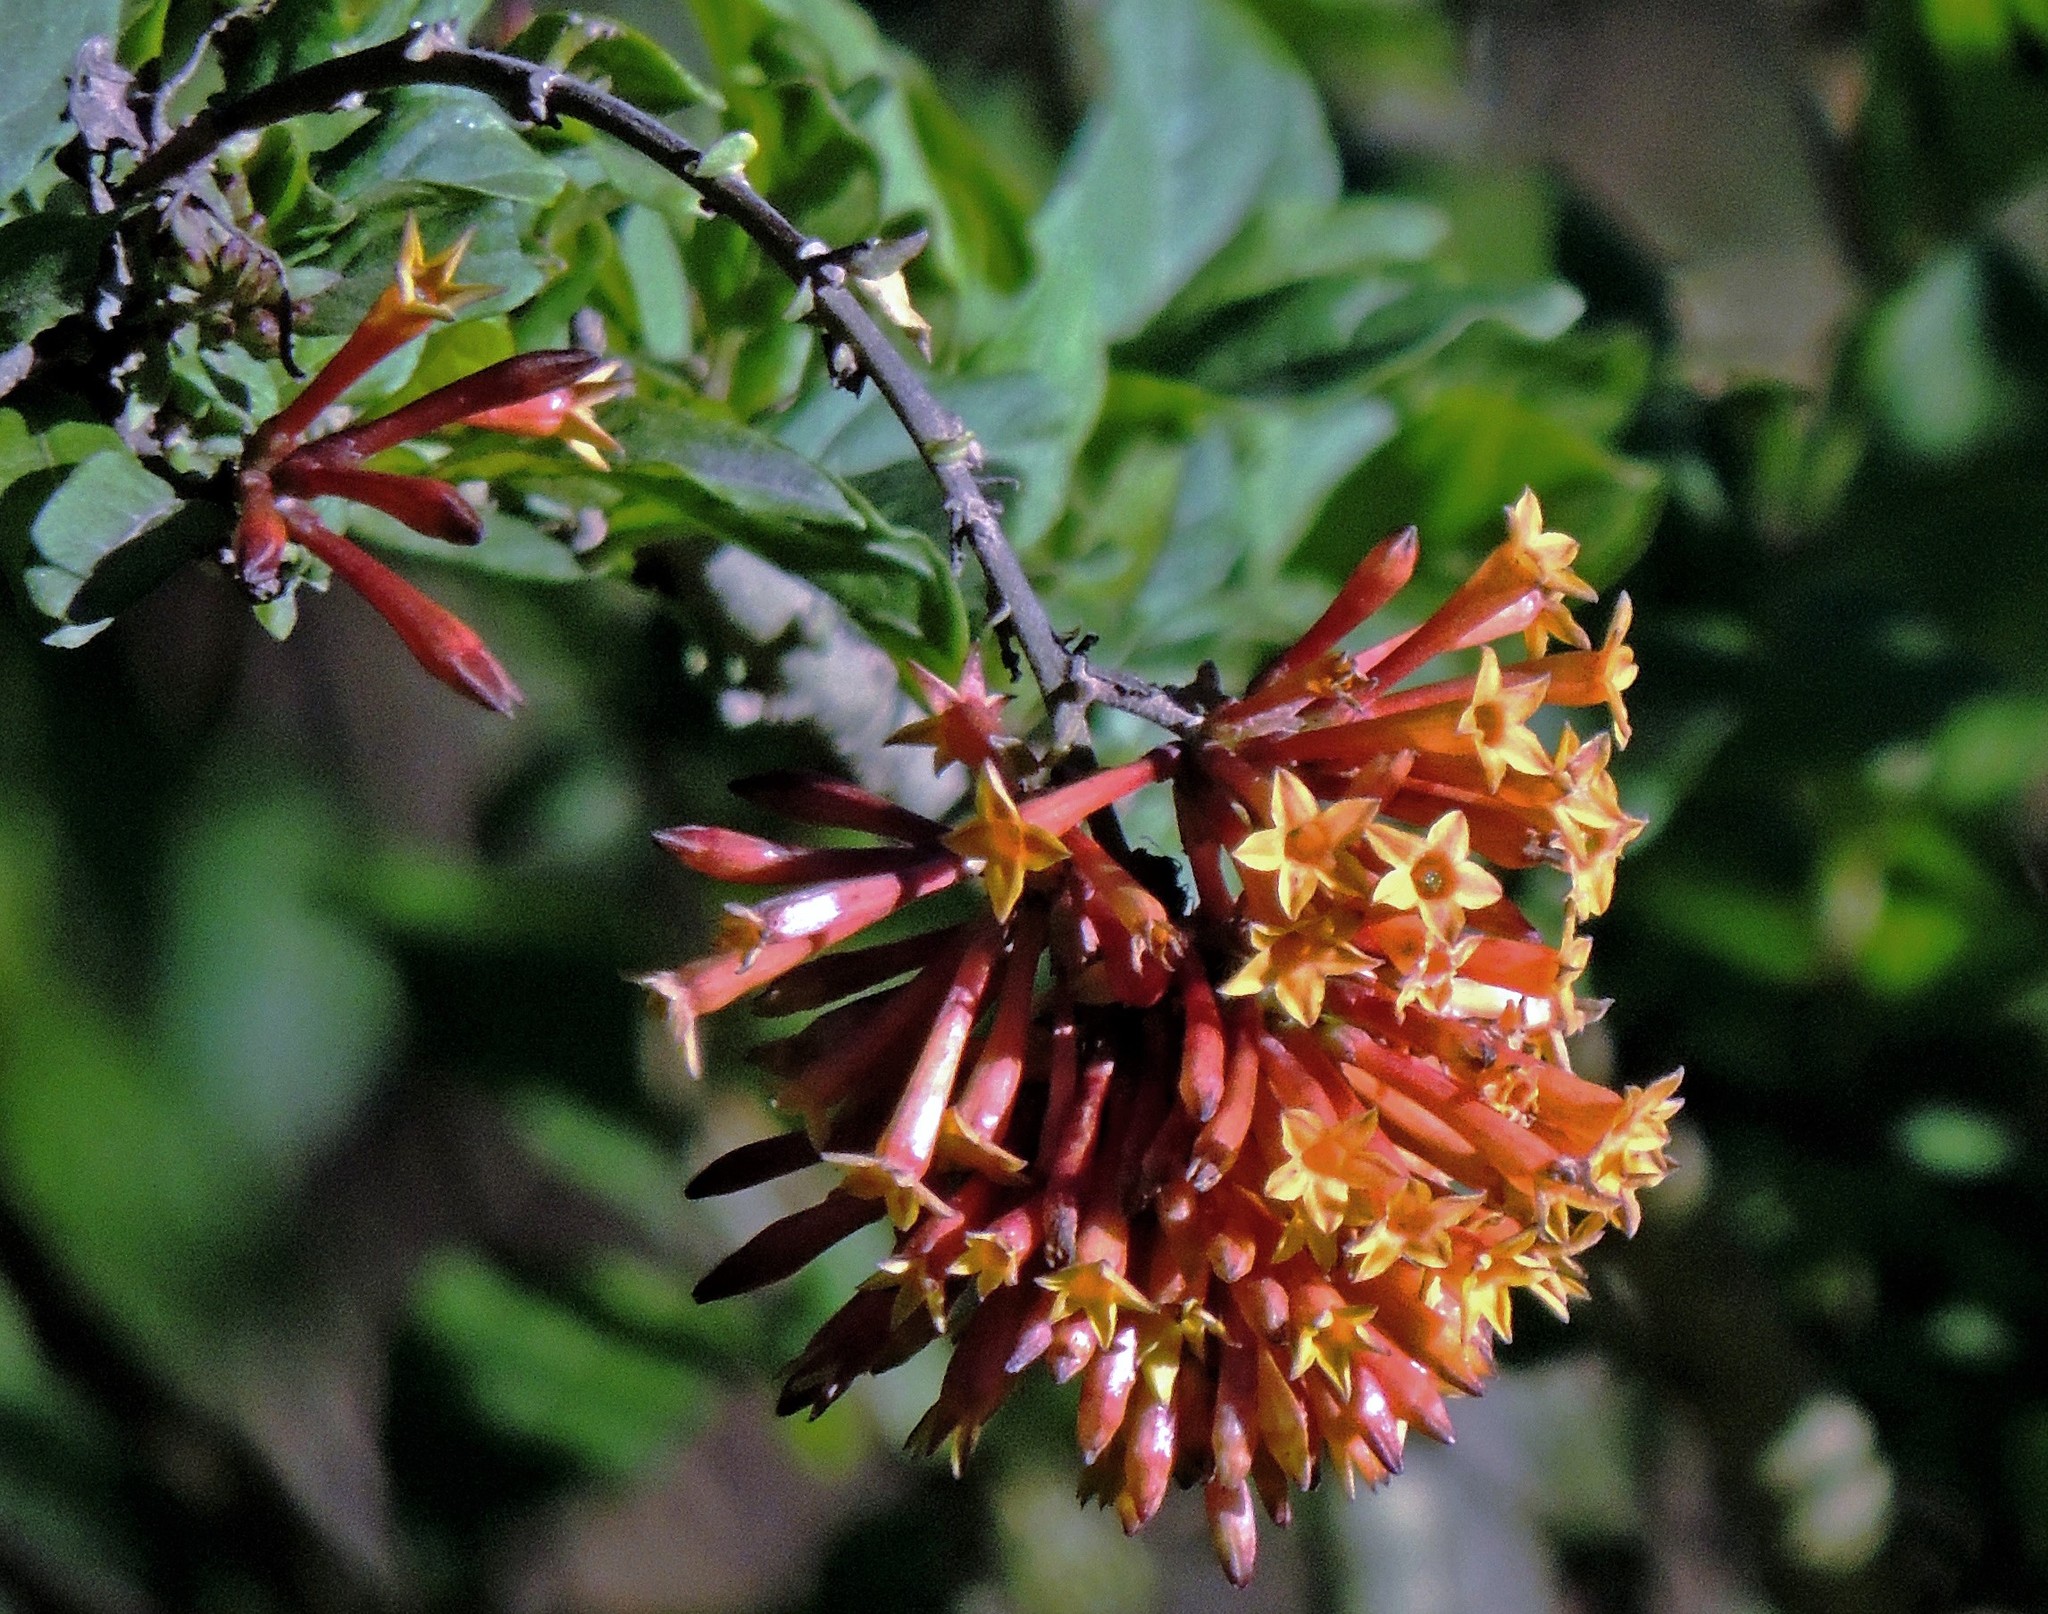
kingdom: Plantae
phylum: Tracheophyta
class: Magnoliopsida
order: Solanales
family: Solanaceae
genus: Cestrum
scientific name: Cestrum parqui
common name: Chilean cestrum
